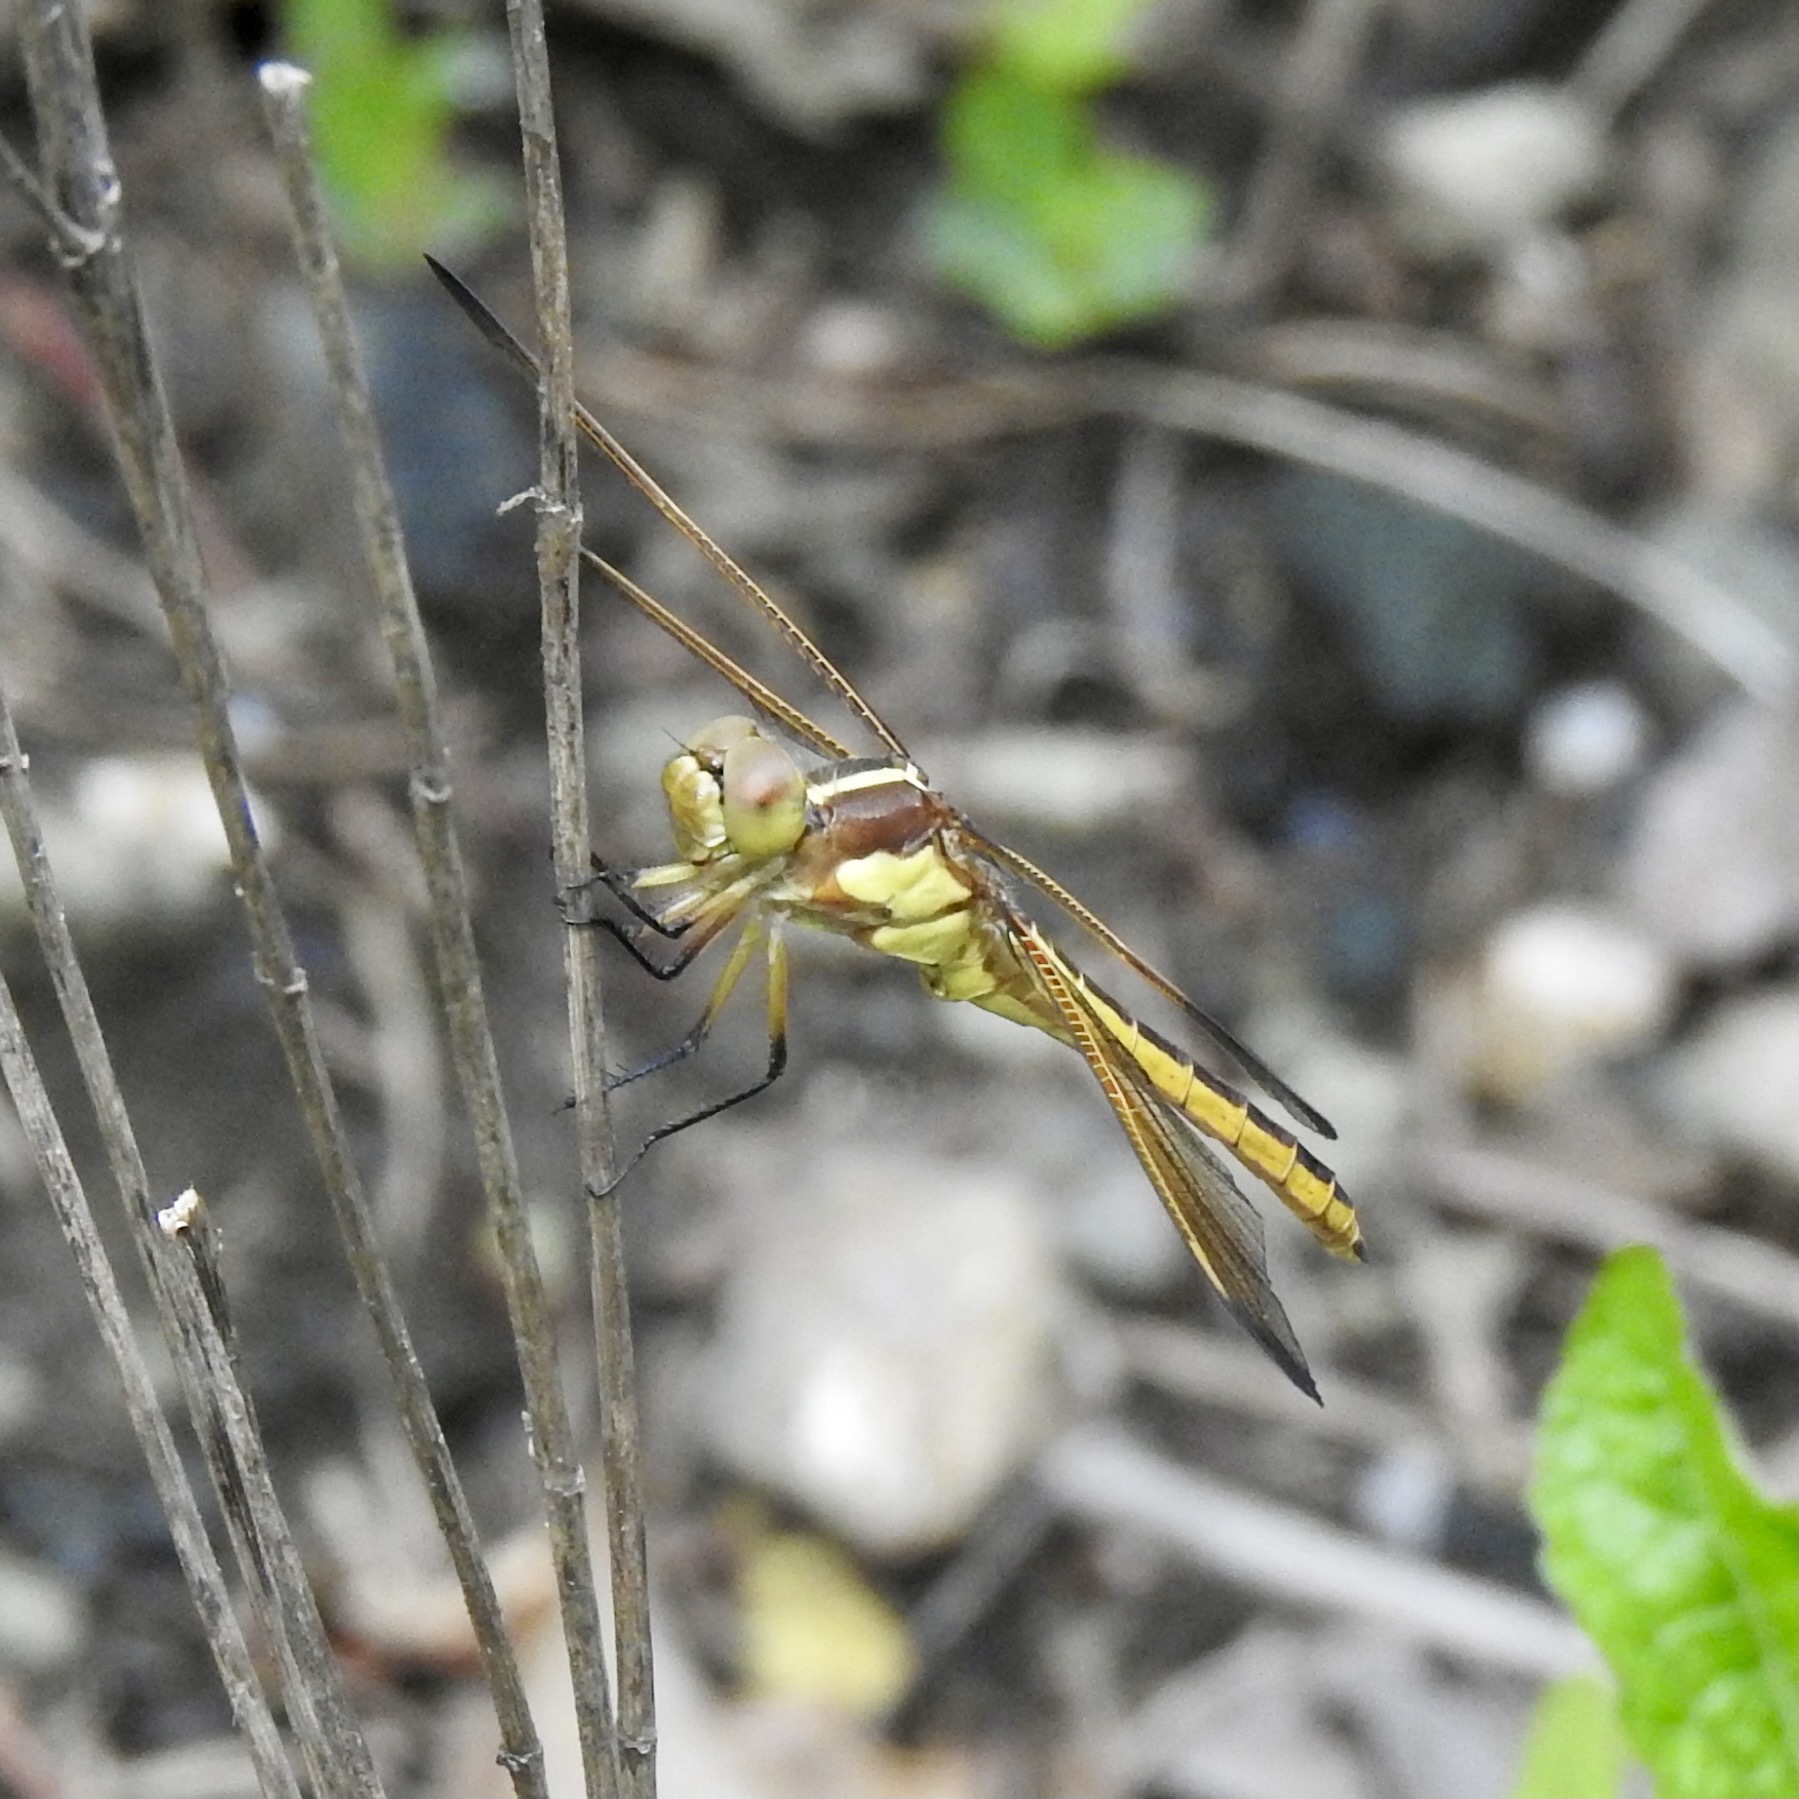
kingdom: Animalia
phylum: Arthropoda
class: Insecta
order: Odonata
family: Libellulidae
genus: Libellula
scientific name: Libellula flavida
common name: Yellow-sided skimmer
